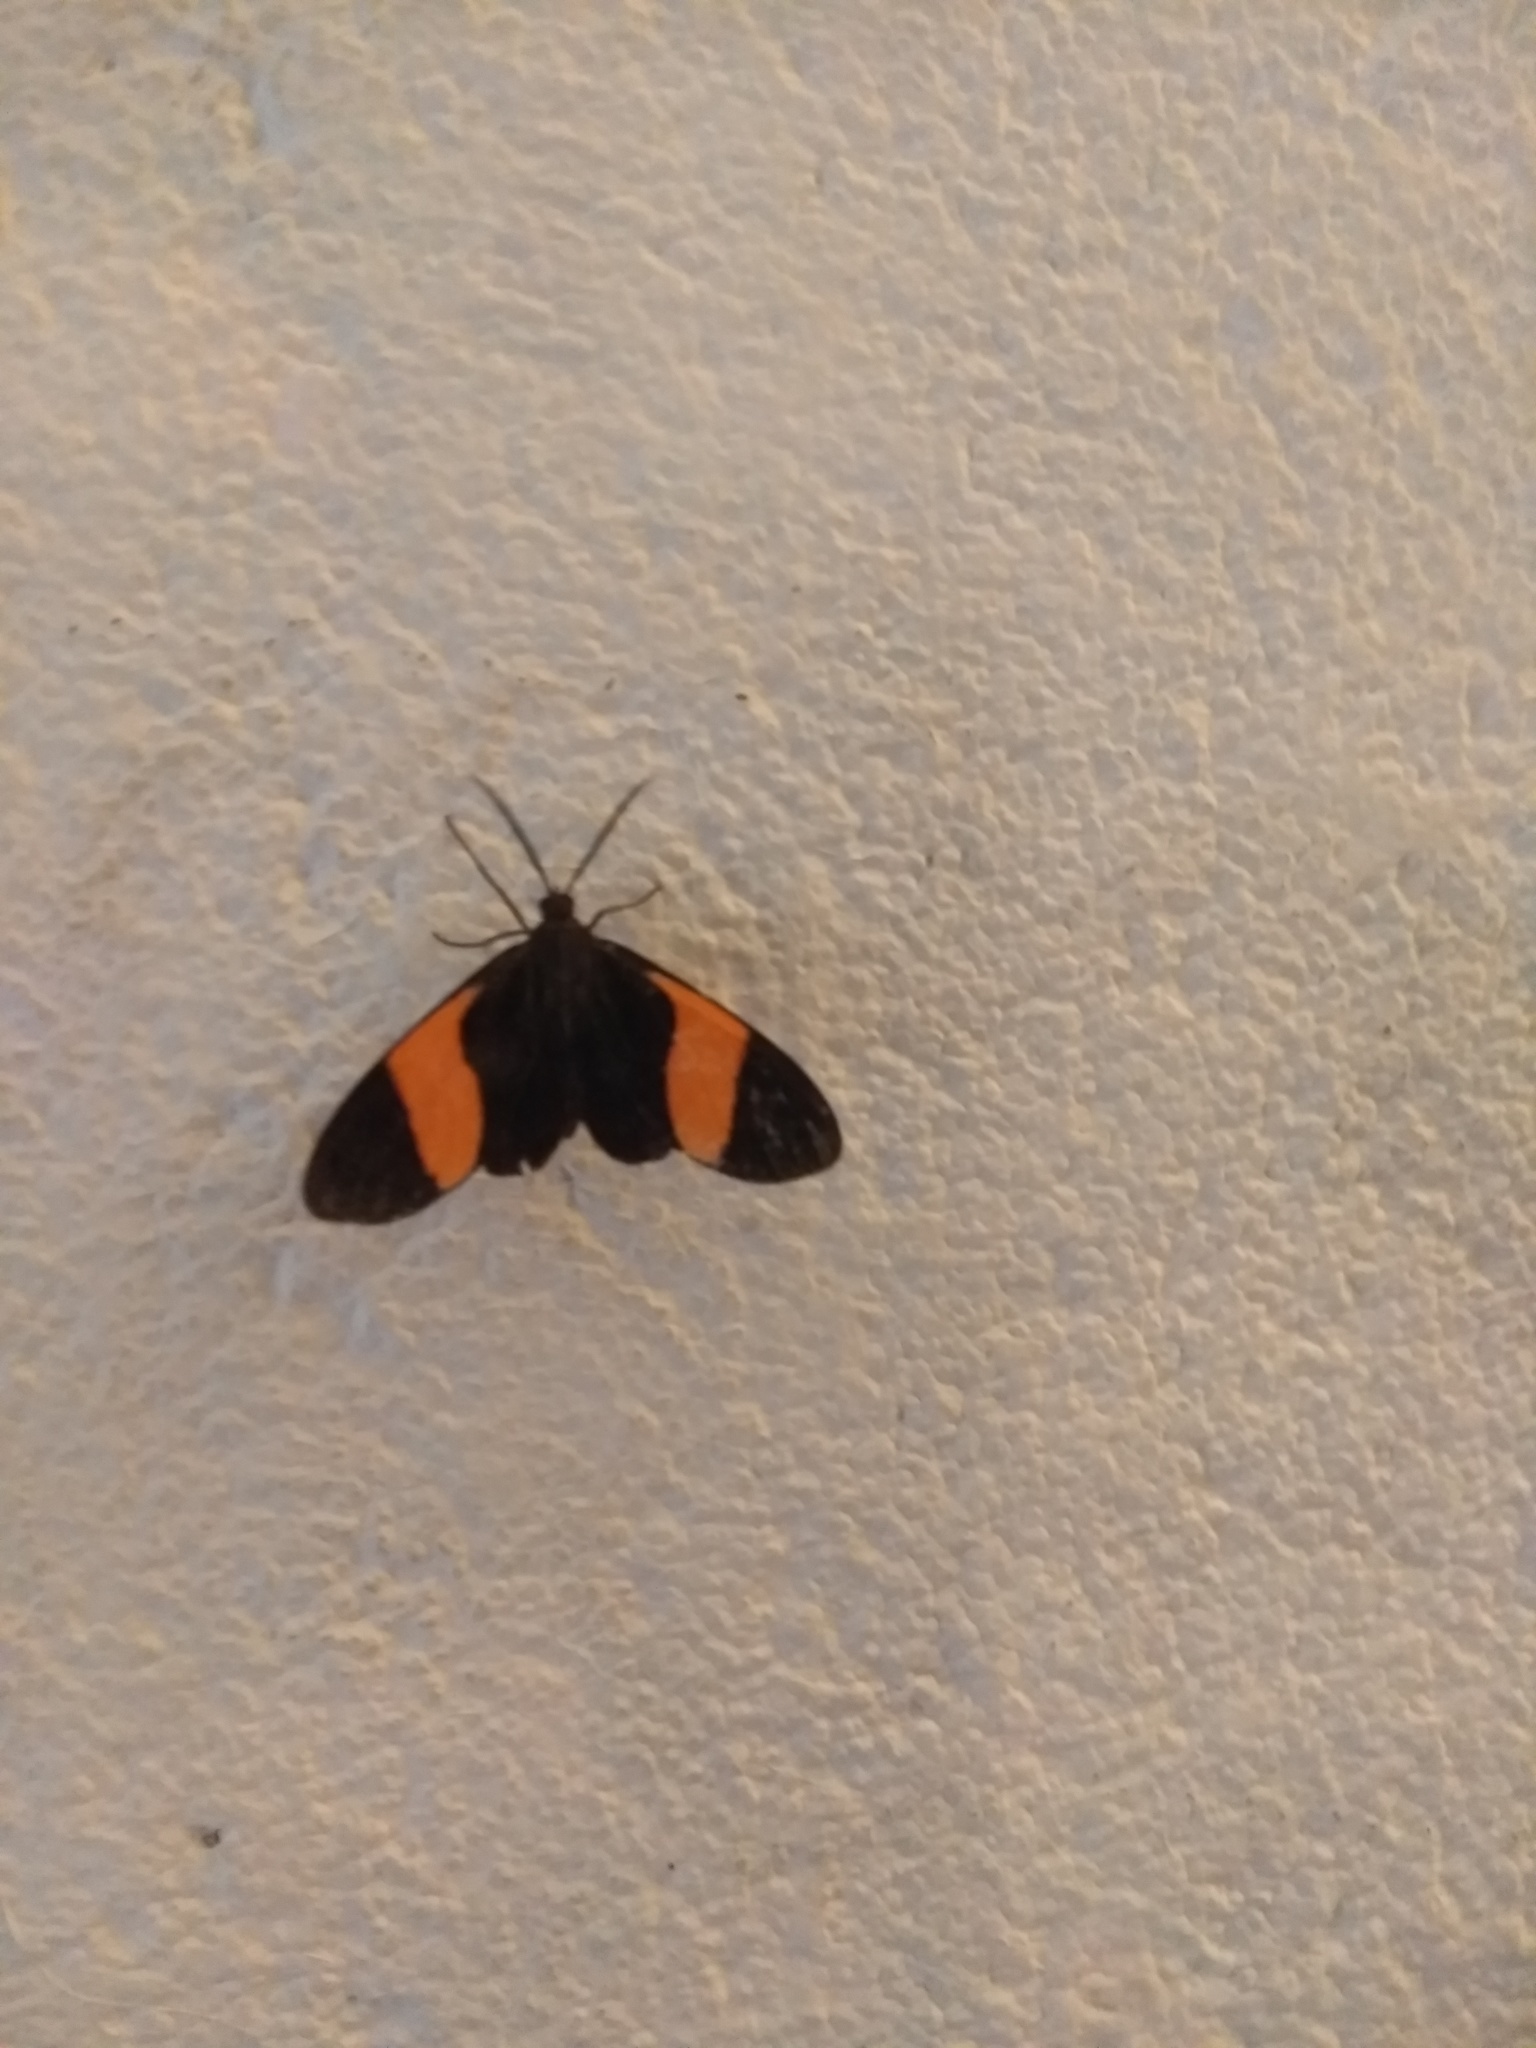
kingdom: Animalia
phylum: Arthropoda
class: Insecta
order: Lepidoptera
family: Erebidae
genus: Callopepla
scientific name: Callopepla emarginata
